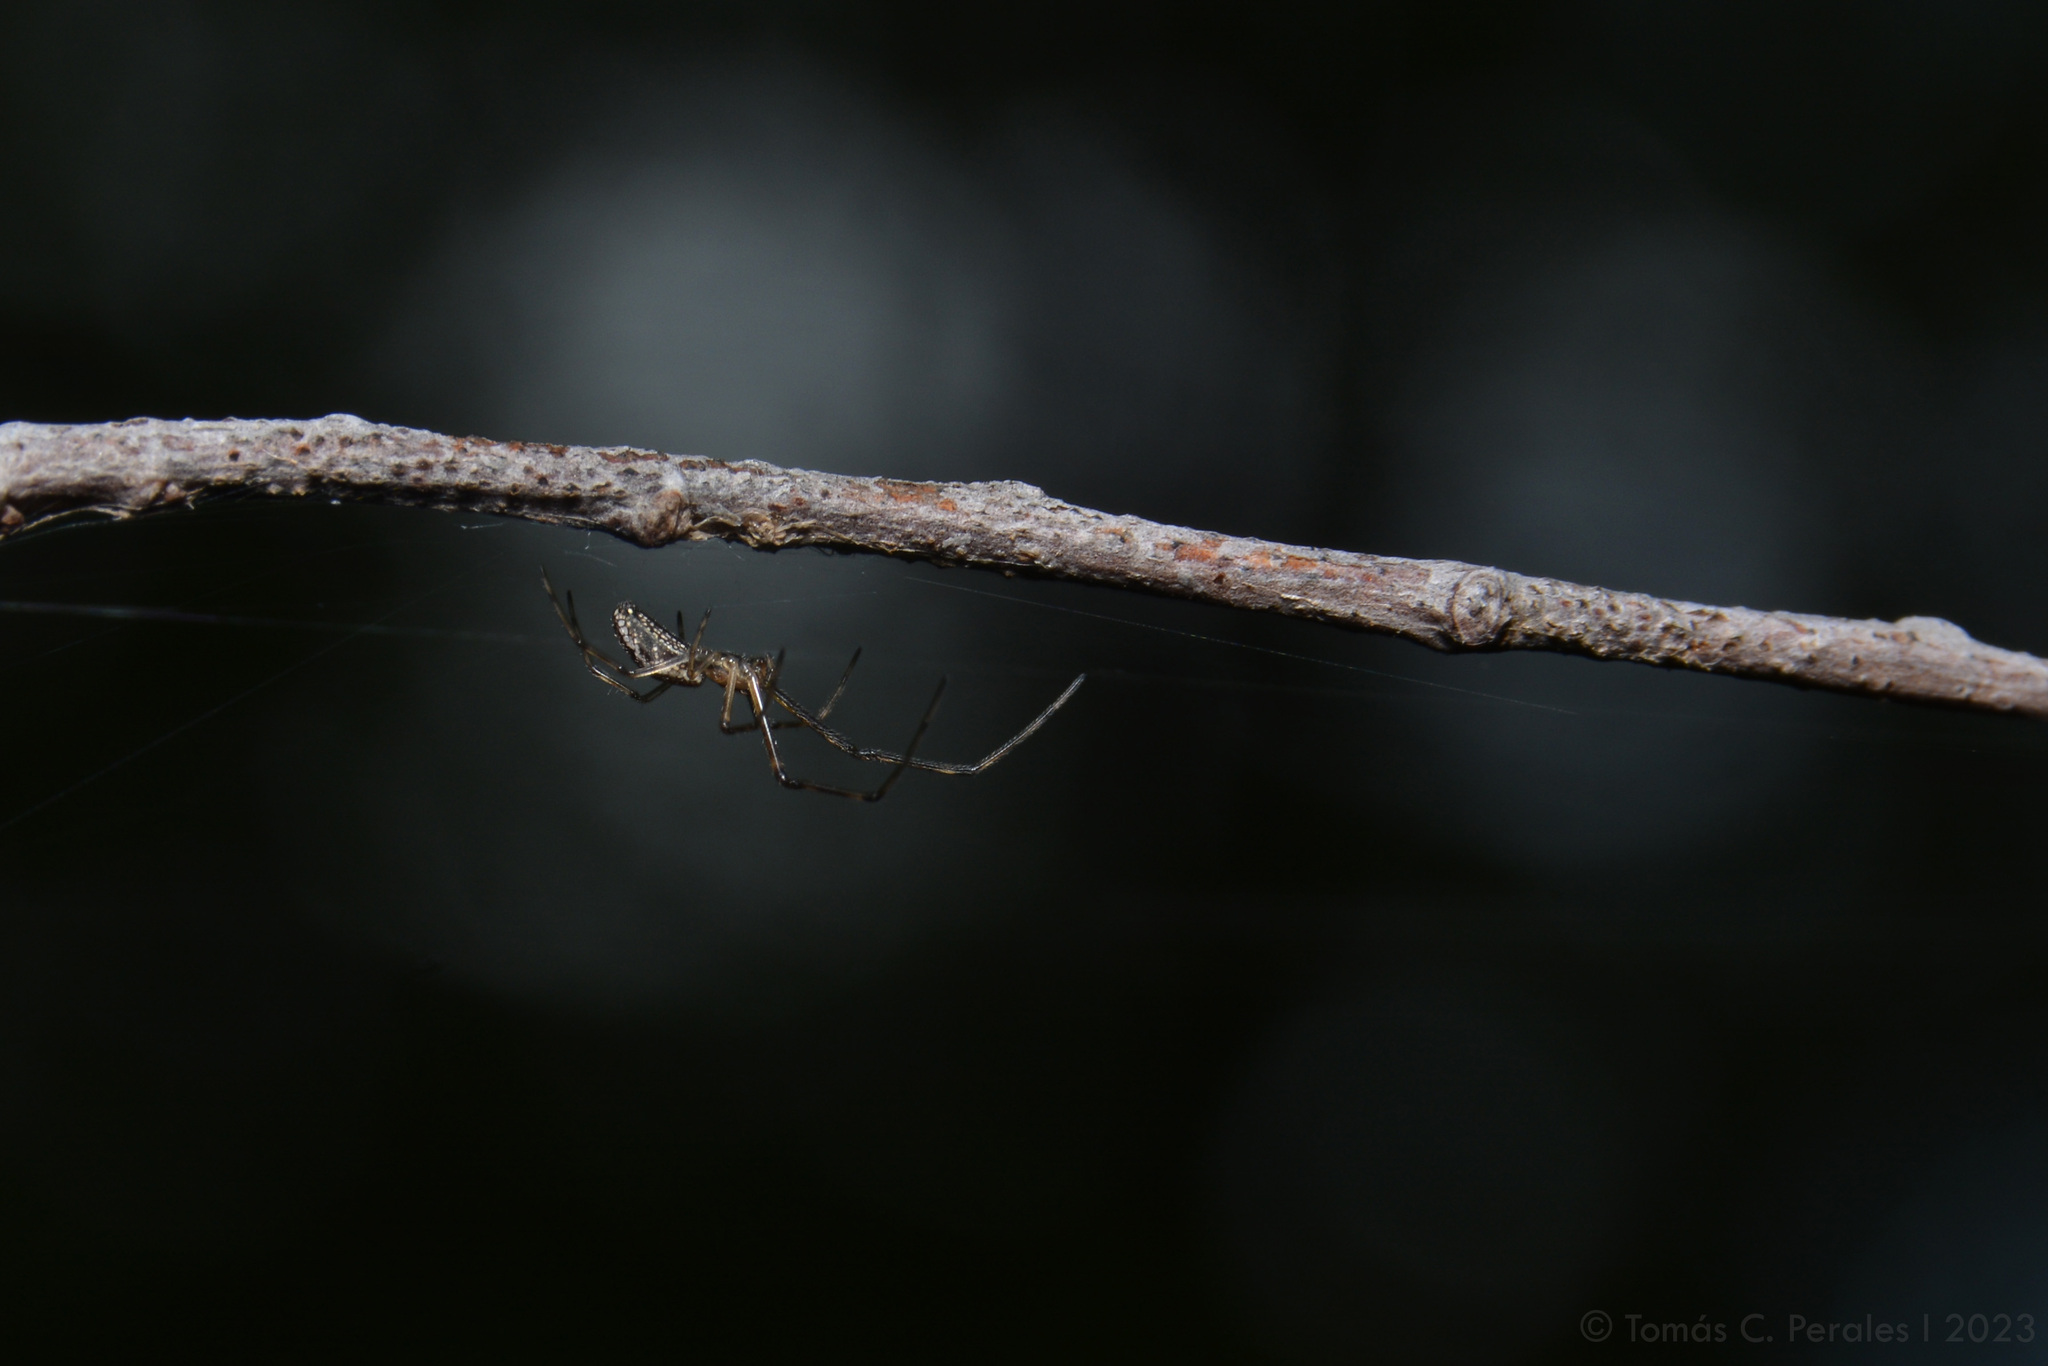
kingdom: Animalia
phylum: Arthropoda
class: Arachnida
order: Araneae
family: Tetragnathidae
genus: Tetragnatha
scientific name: Tetragnatha
